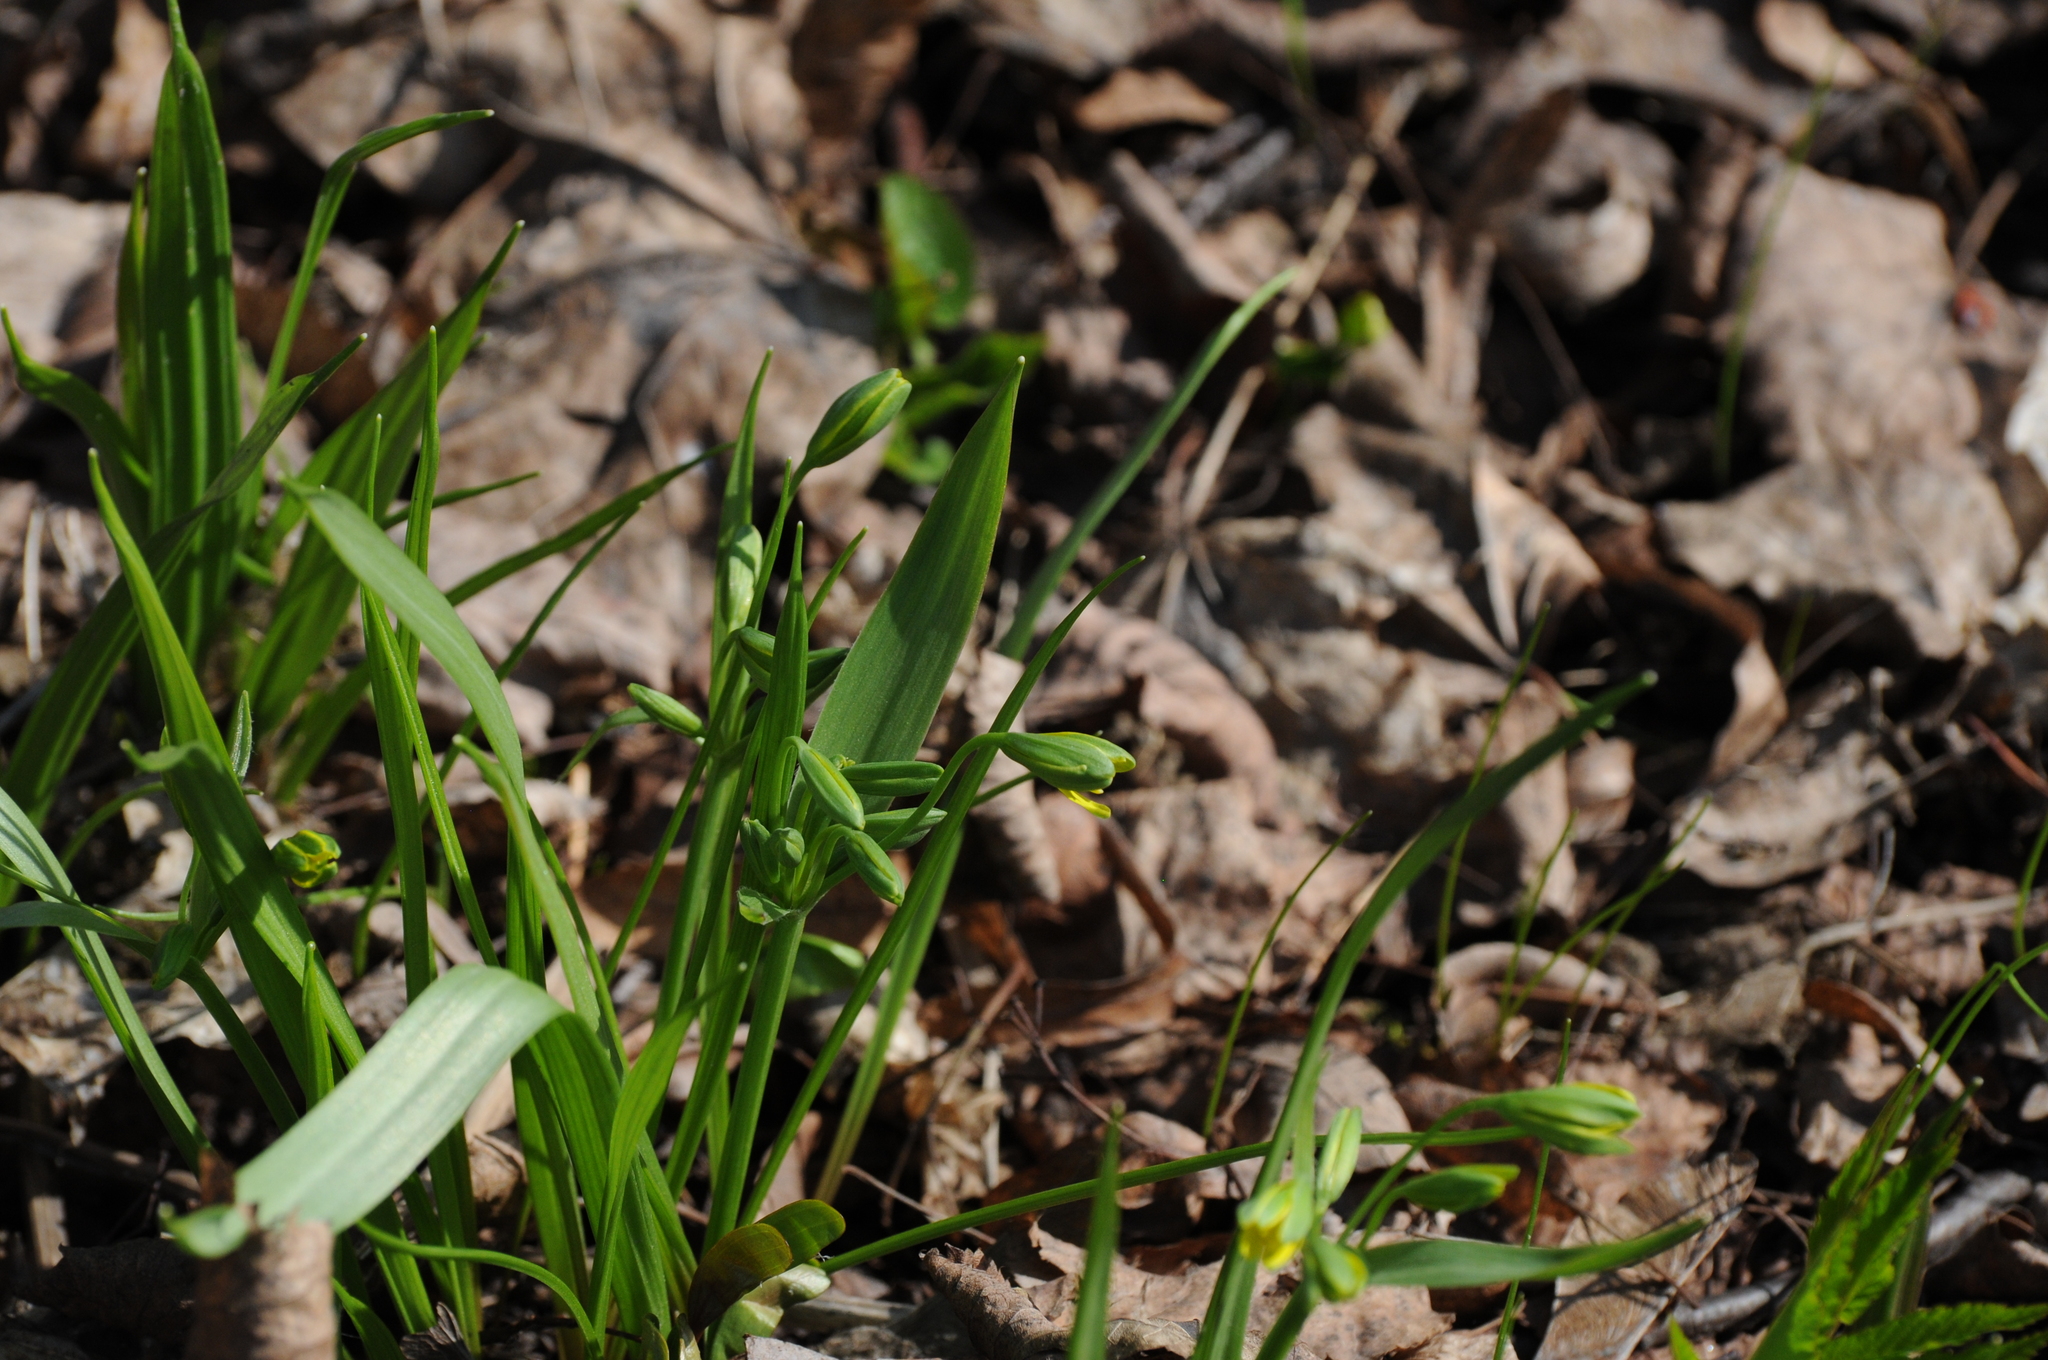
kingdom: Plantae
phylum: Tracheophyta
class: Liliopsida
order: Liliales
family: Liliaceae
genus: Gagea
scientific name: Gagea lutea
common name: Yellow star-of-bethlehem
